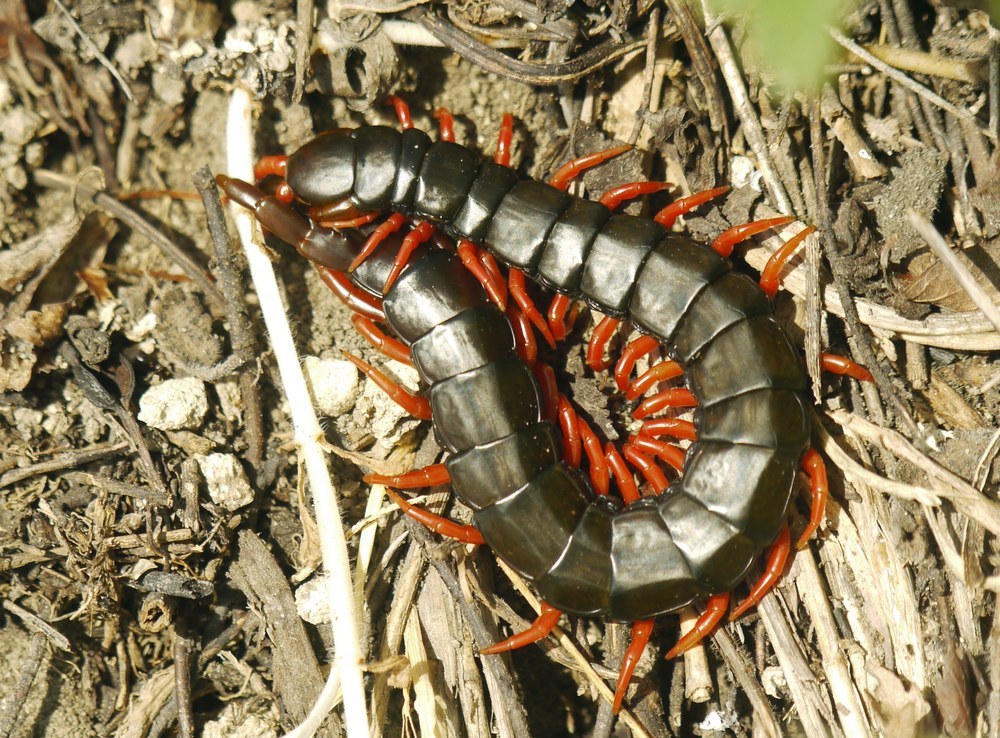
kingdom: Animalia
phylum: Arthropoda
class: Chilopoda
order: Scolopendromorpha
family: Scolopendridae
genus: Scolopendra
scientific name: Scolopendra cingulata
